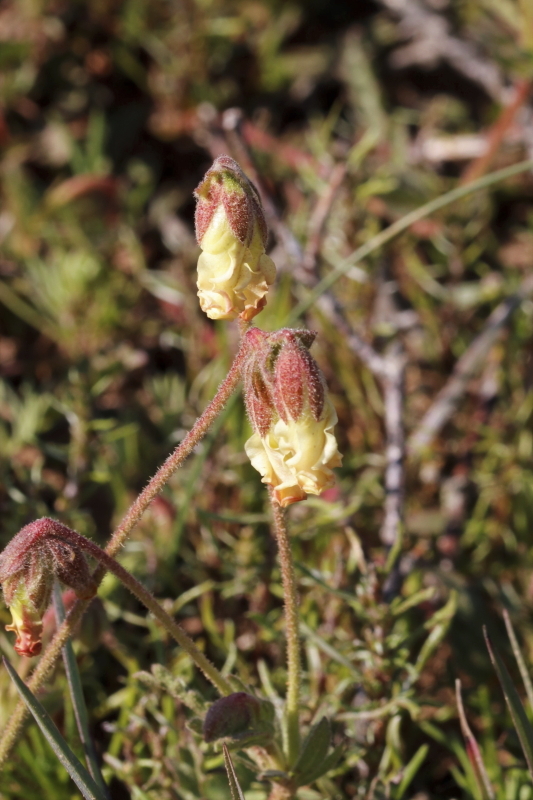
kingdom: Plantae
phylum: Tracheophyta
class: Magnoliopsida
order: Malvales
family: Malvaceae
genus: Hermannia
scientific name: Hermannia litoralis
